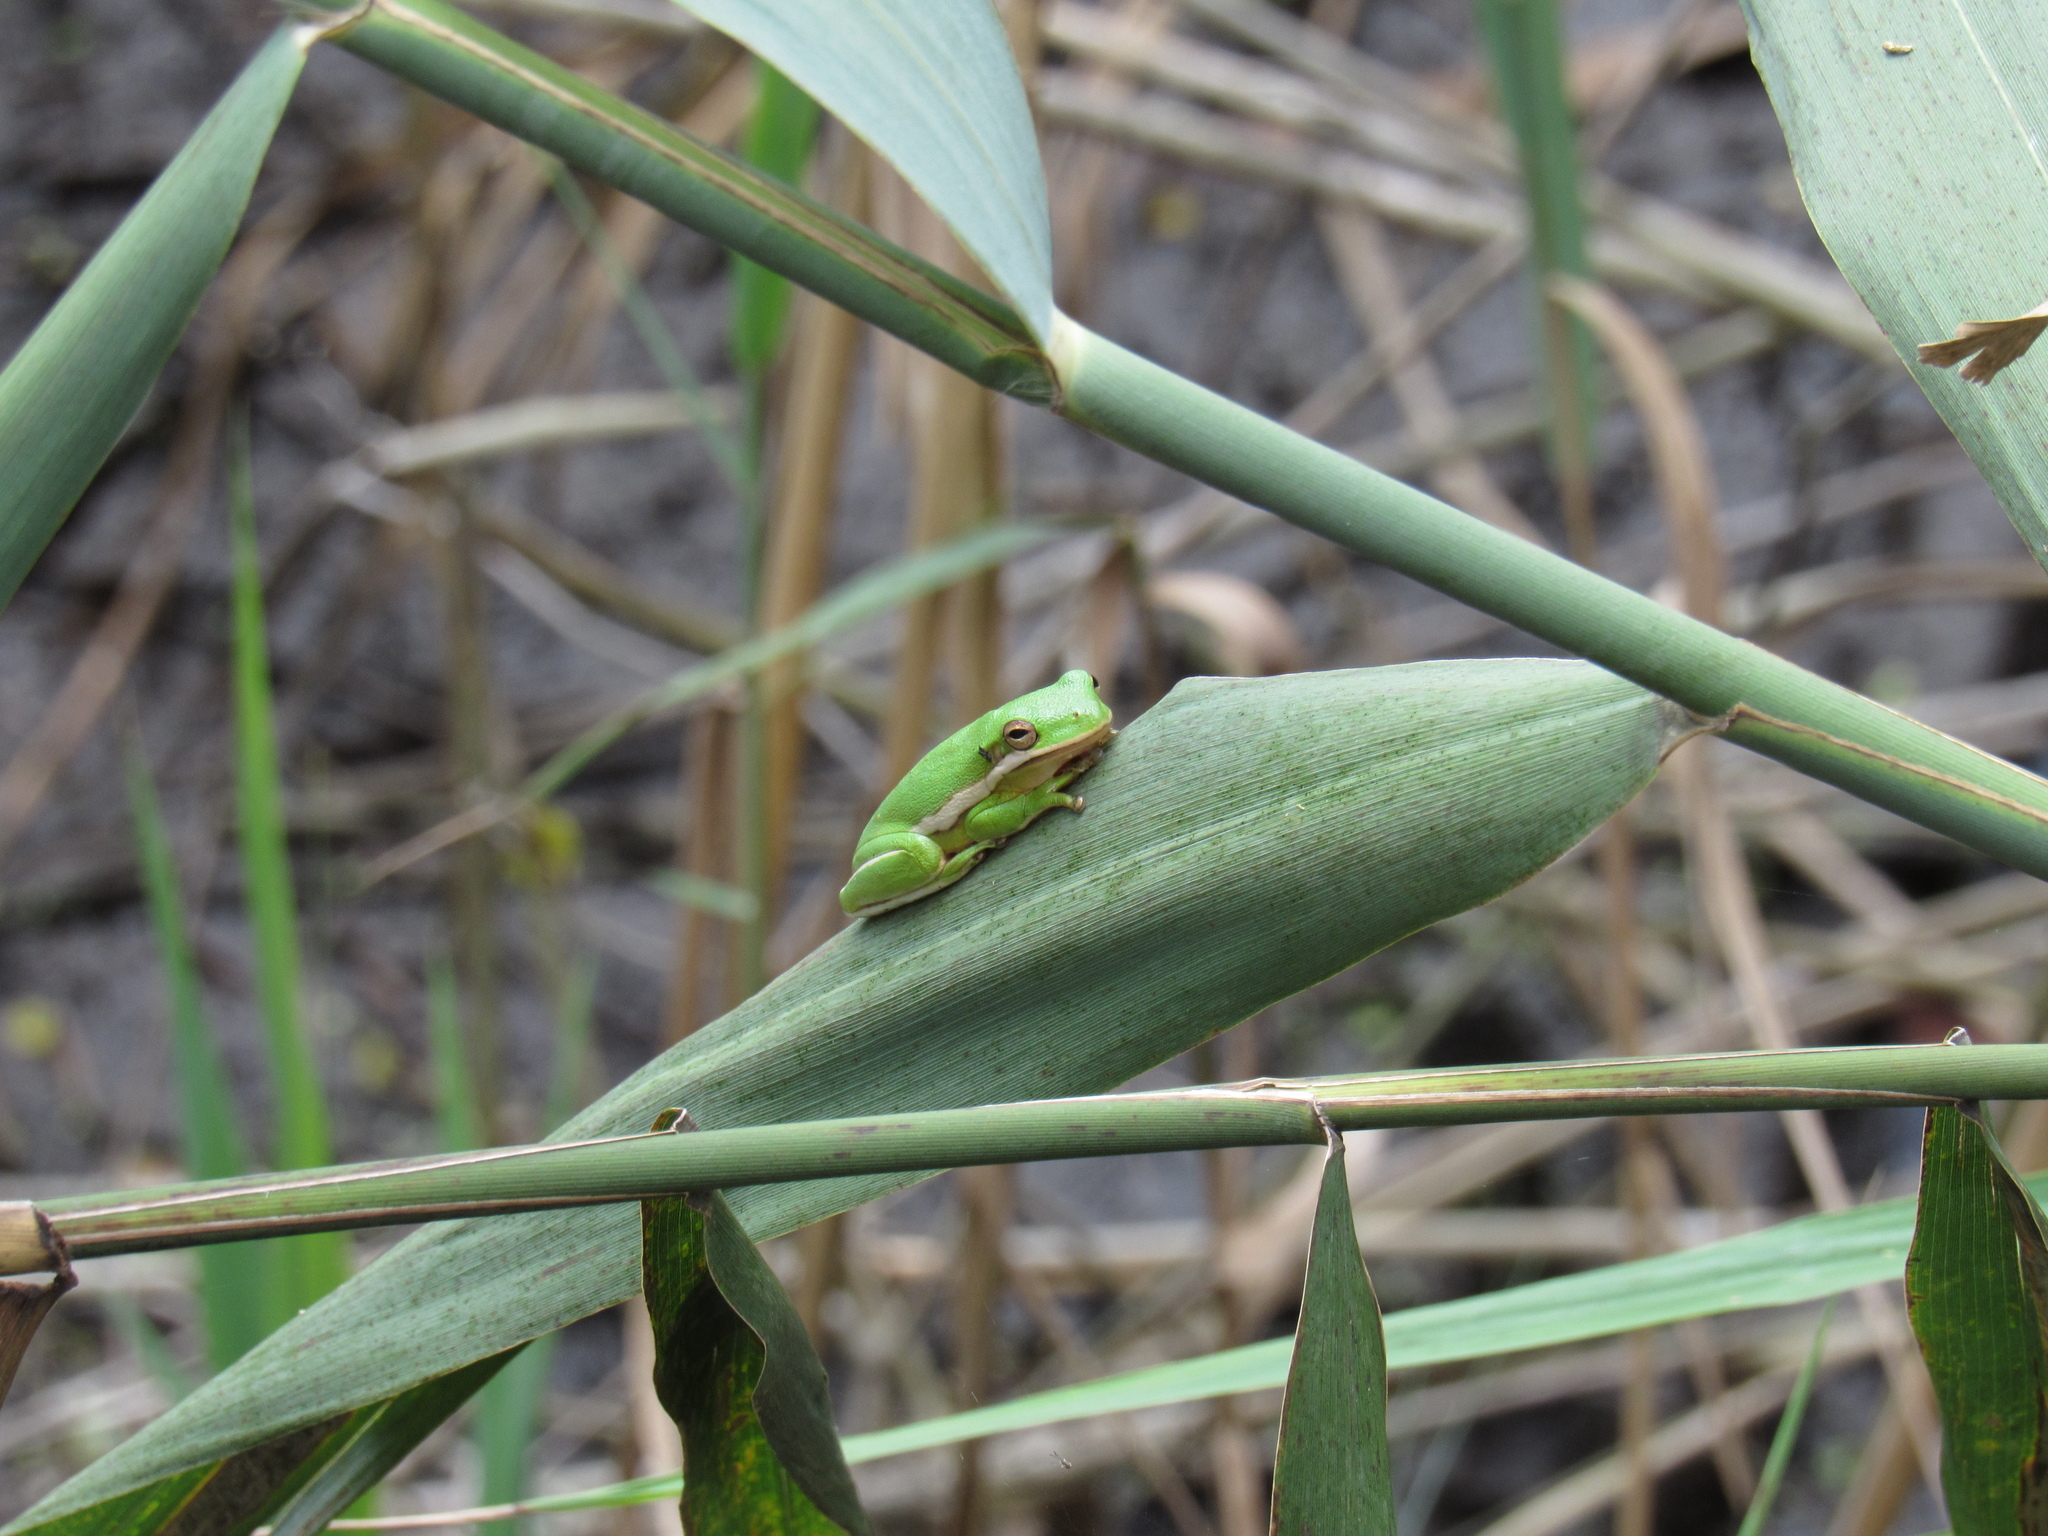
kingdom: Animalia
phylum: Chordata
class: Amphibia
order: Anura
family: Hylidae
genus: Dryophytes
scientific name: Dryophytes cinereus
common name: Green treefrog
